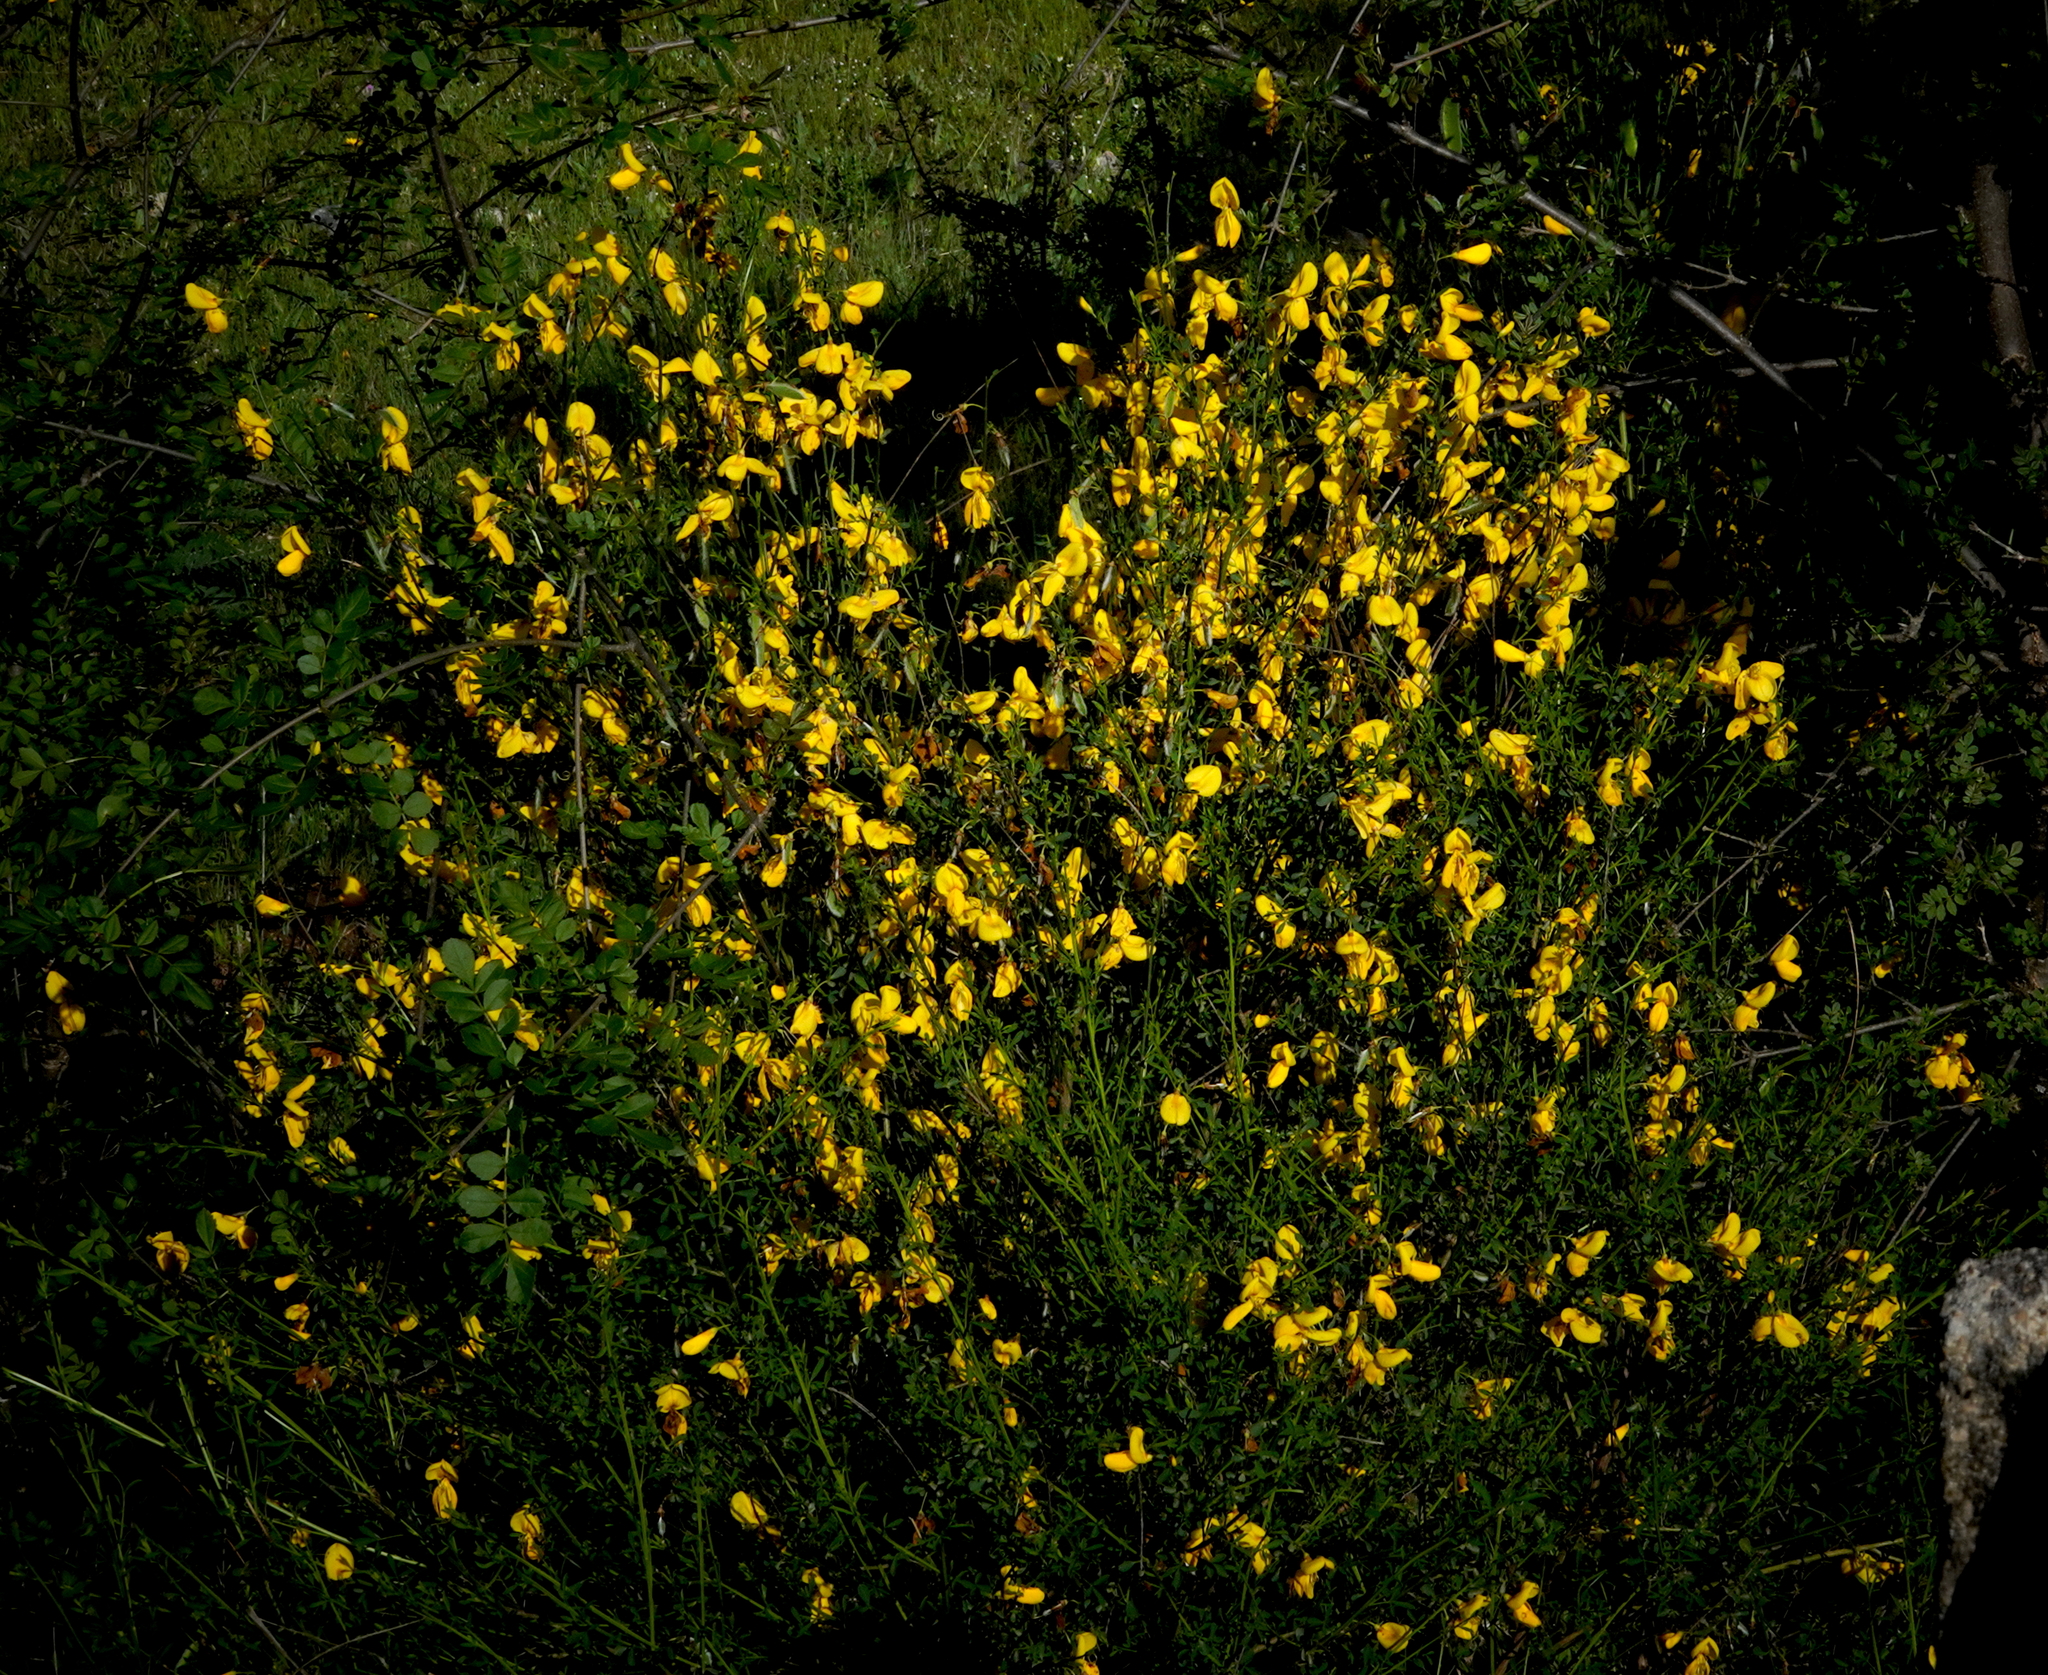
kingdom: Plantae
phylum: Tracheophyta
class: Magnoliopsida
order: Fabales
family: Fabaceae
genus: Cytisus
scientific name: Cytisus scoparius
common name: Scotch broom
